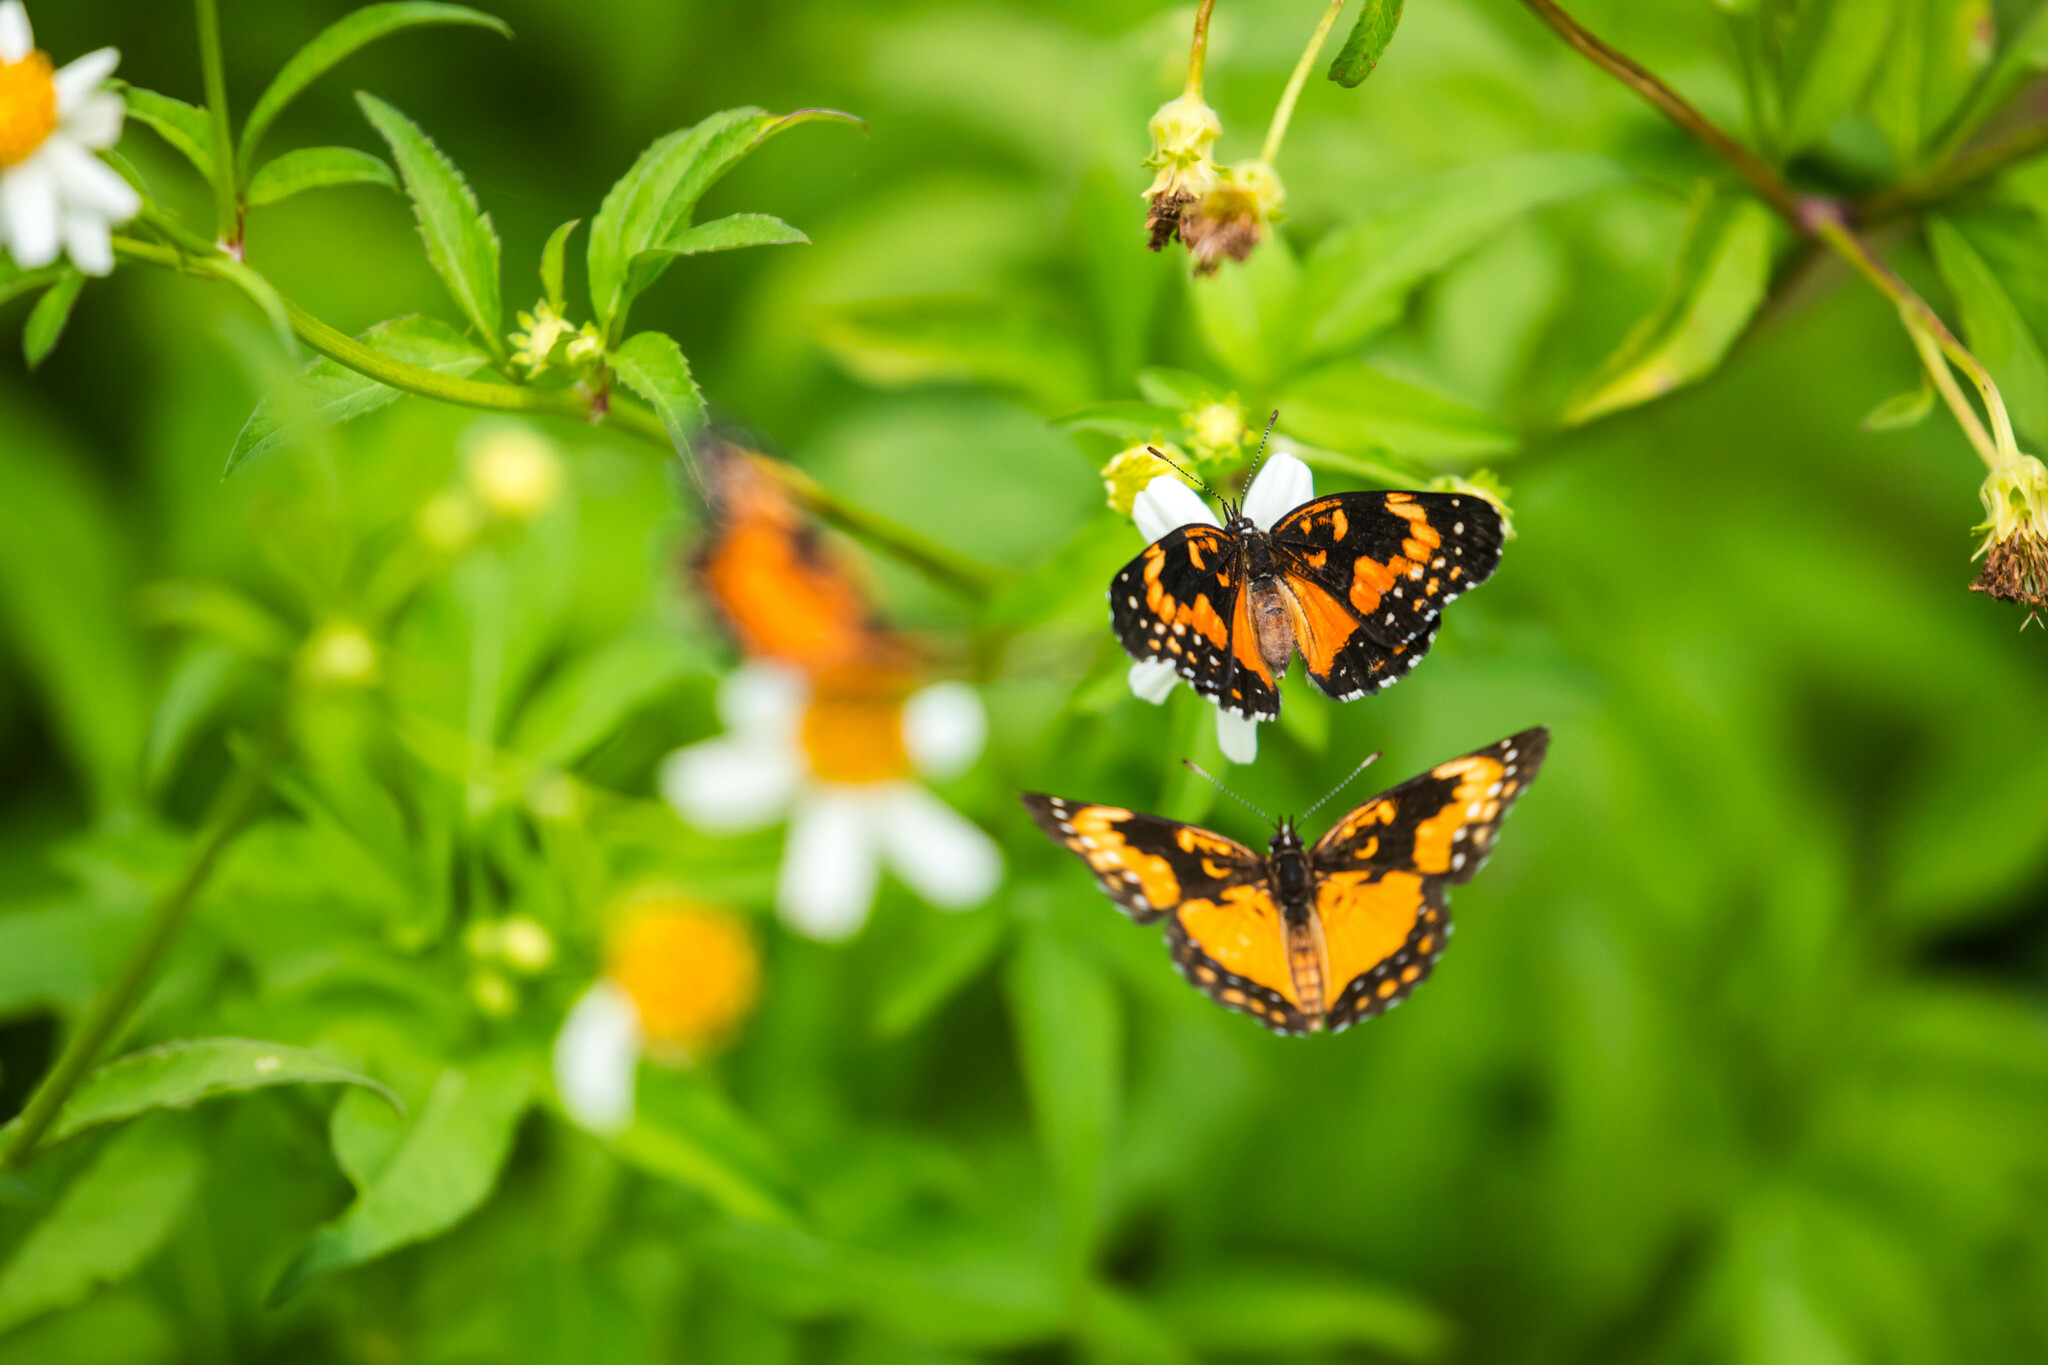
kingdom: Animalia
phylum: Arthropoda
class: Insecta
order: Lepidoptera
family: Nymphalidae
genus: Chlosyne
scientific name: Chlosyne lacinia
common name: Bordered patch
